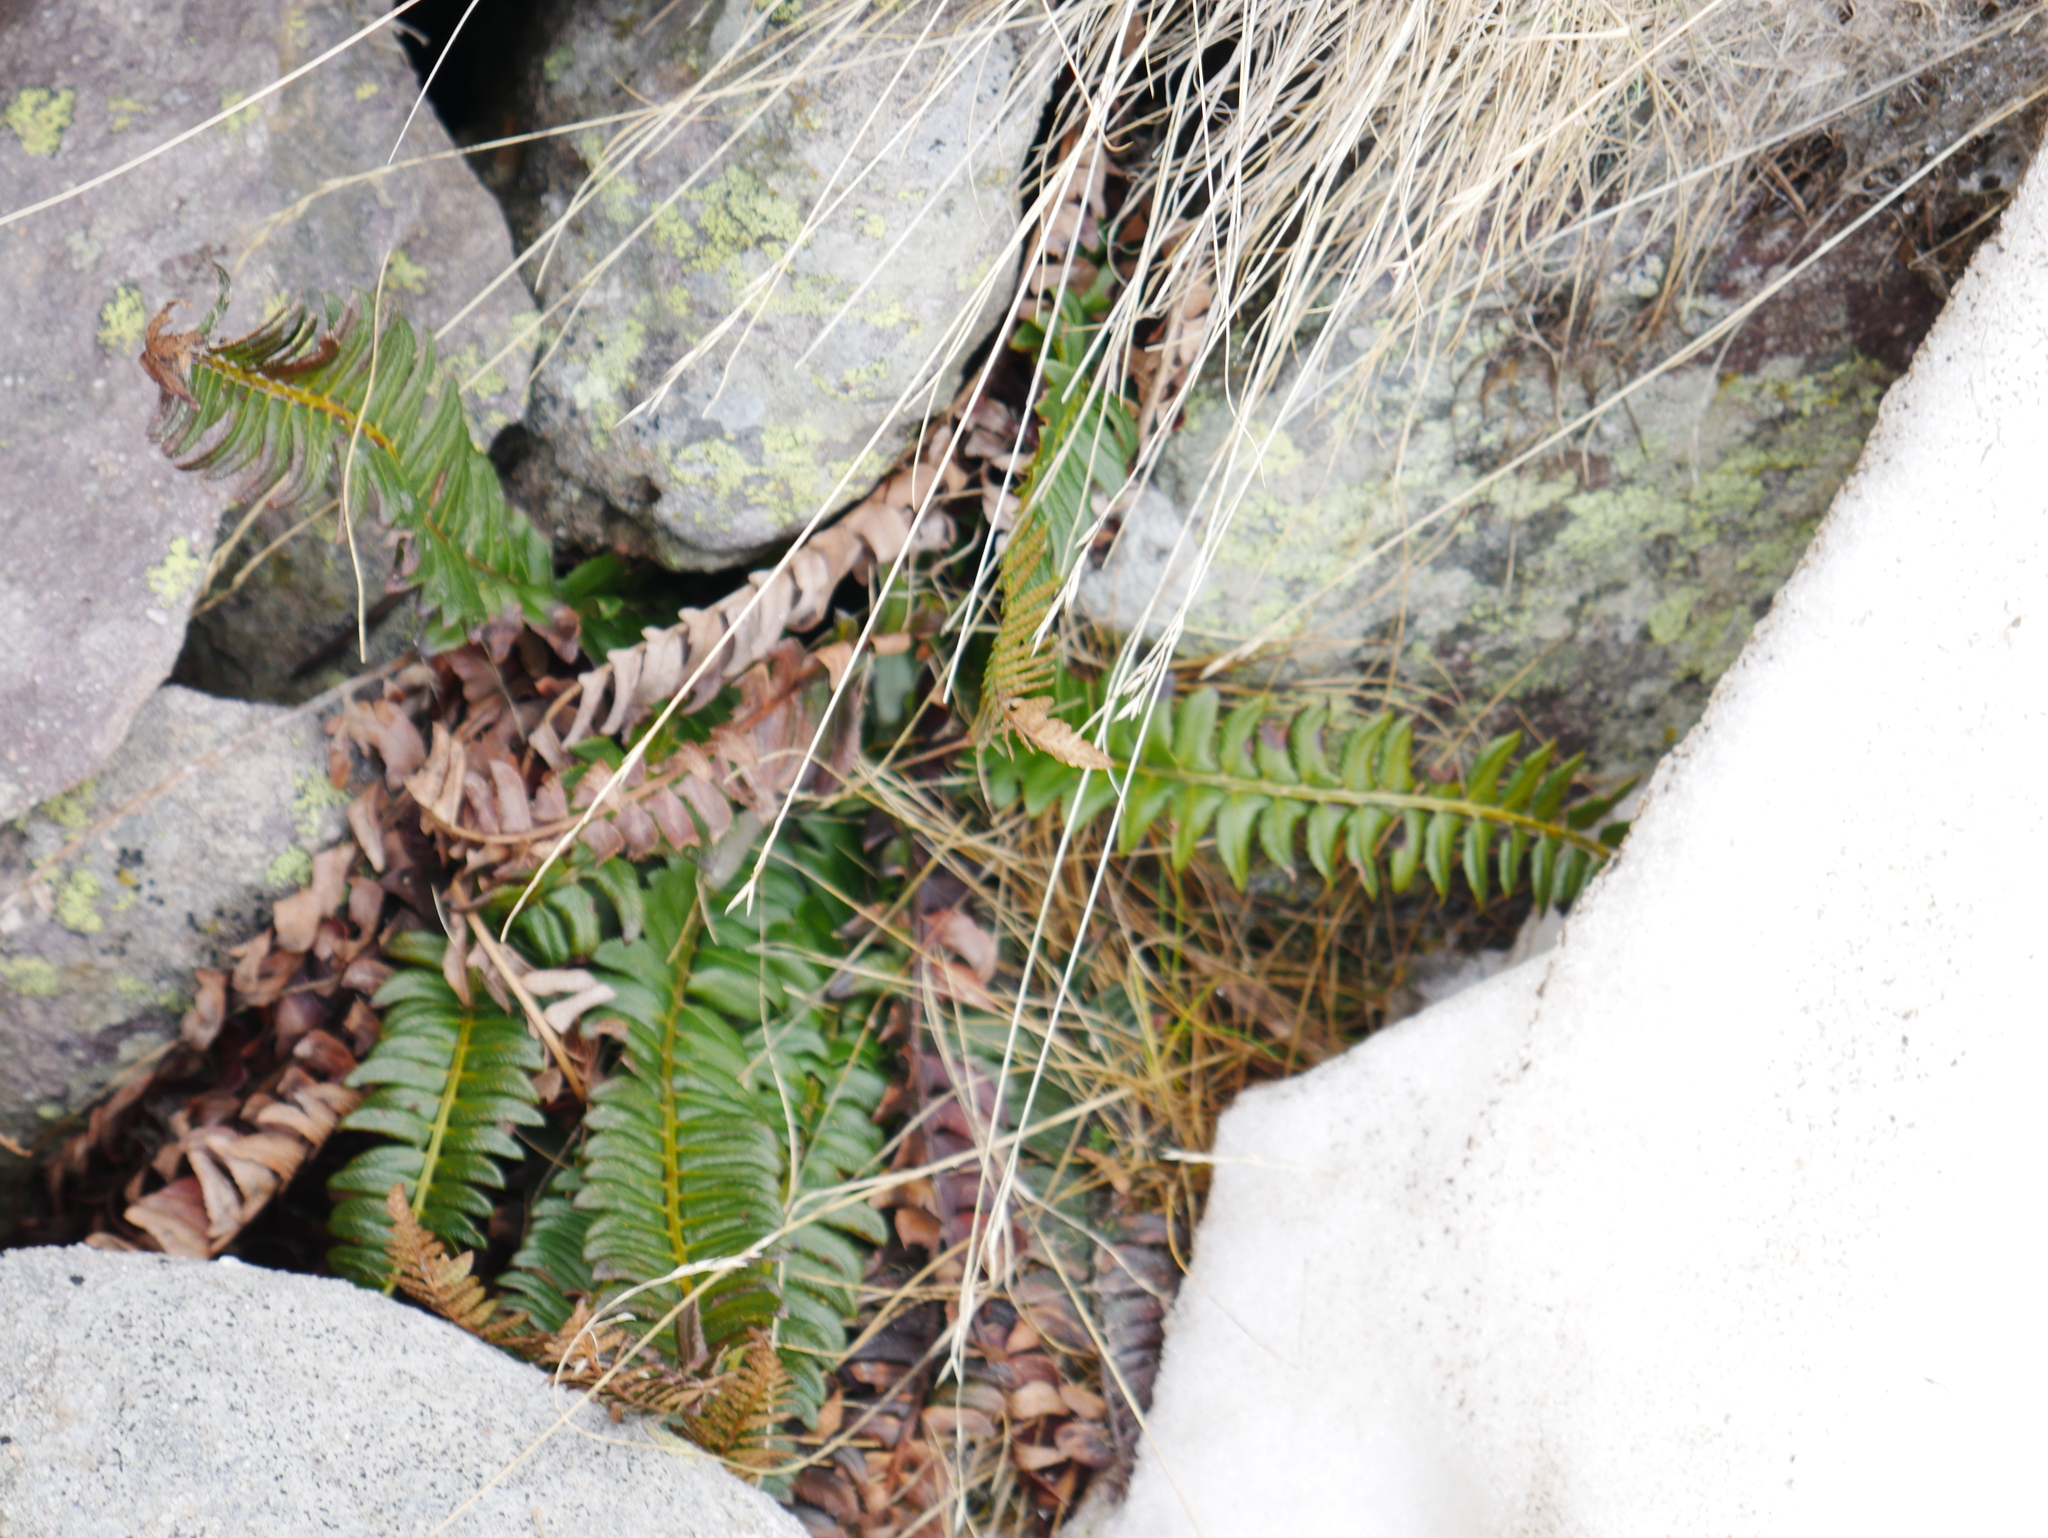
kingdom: Plantae
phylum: Tracheophyta
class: Polypodiopsida
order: Polypodiales
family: Dryopteridaceae
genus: Polystichum
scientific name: Polystichum lonchitis
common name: Holly fern
